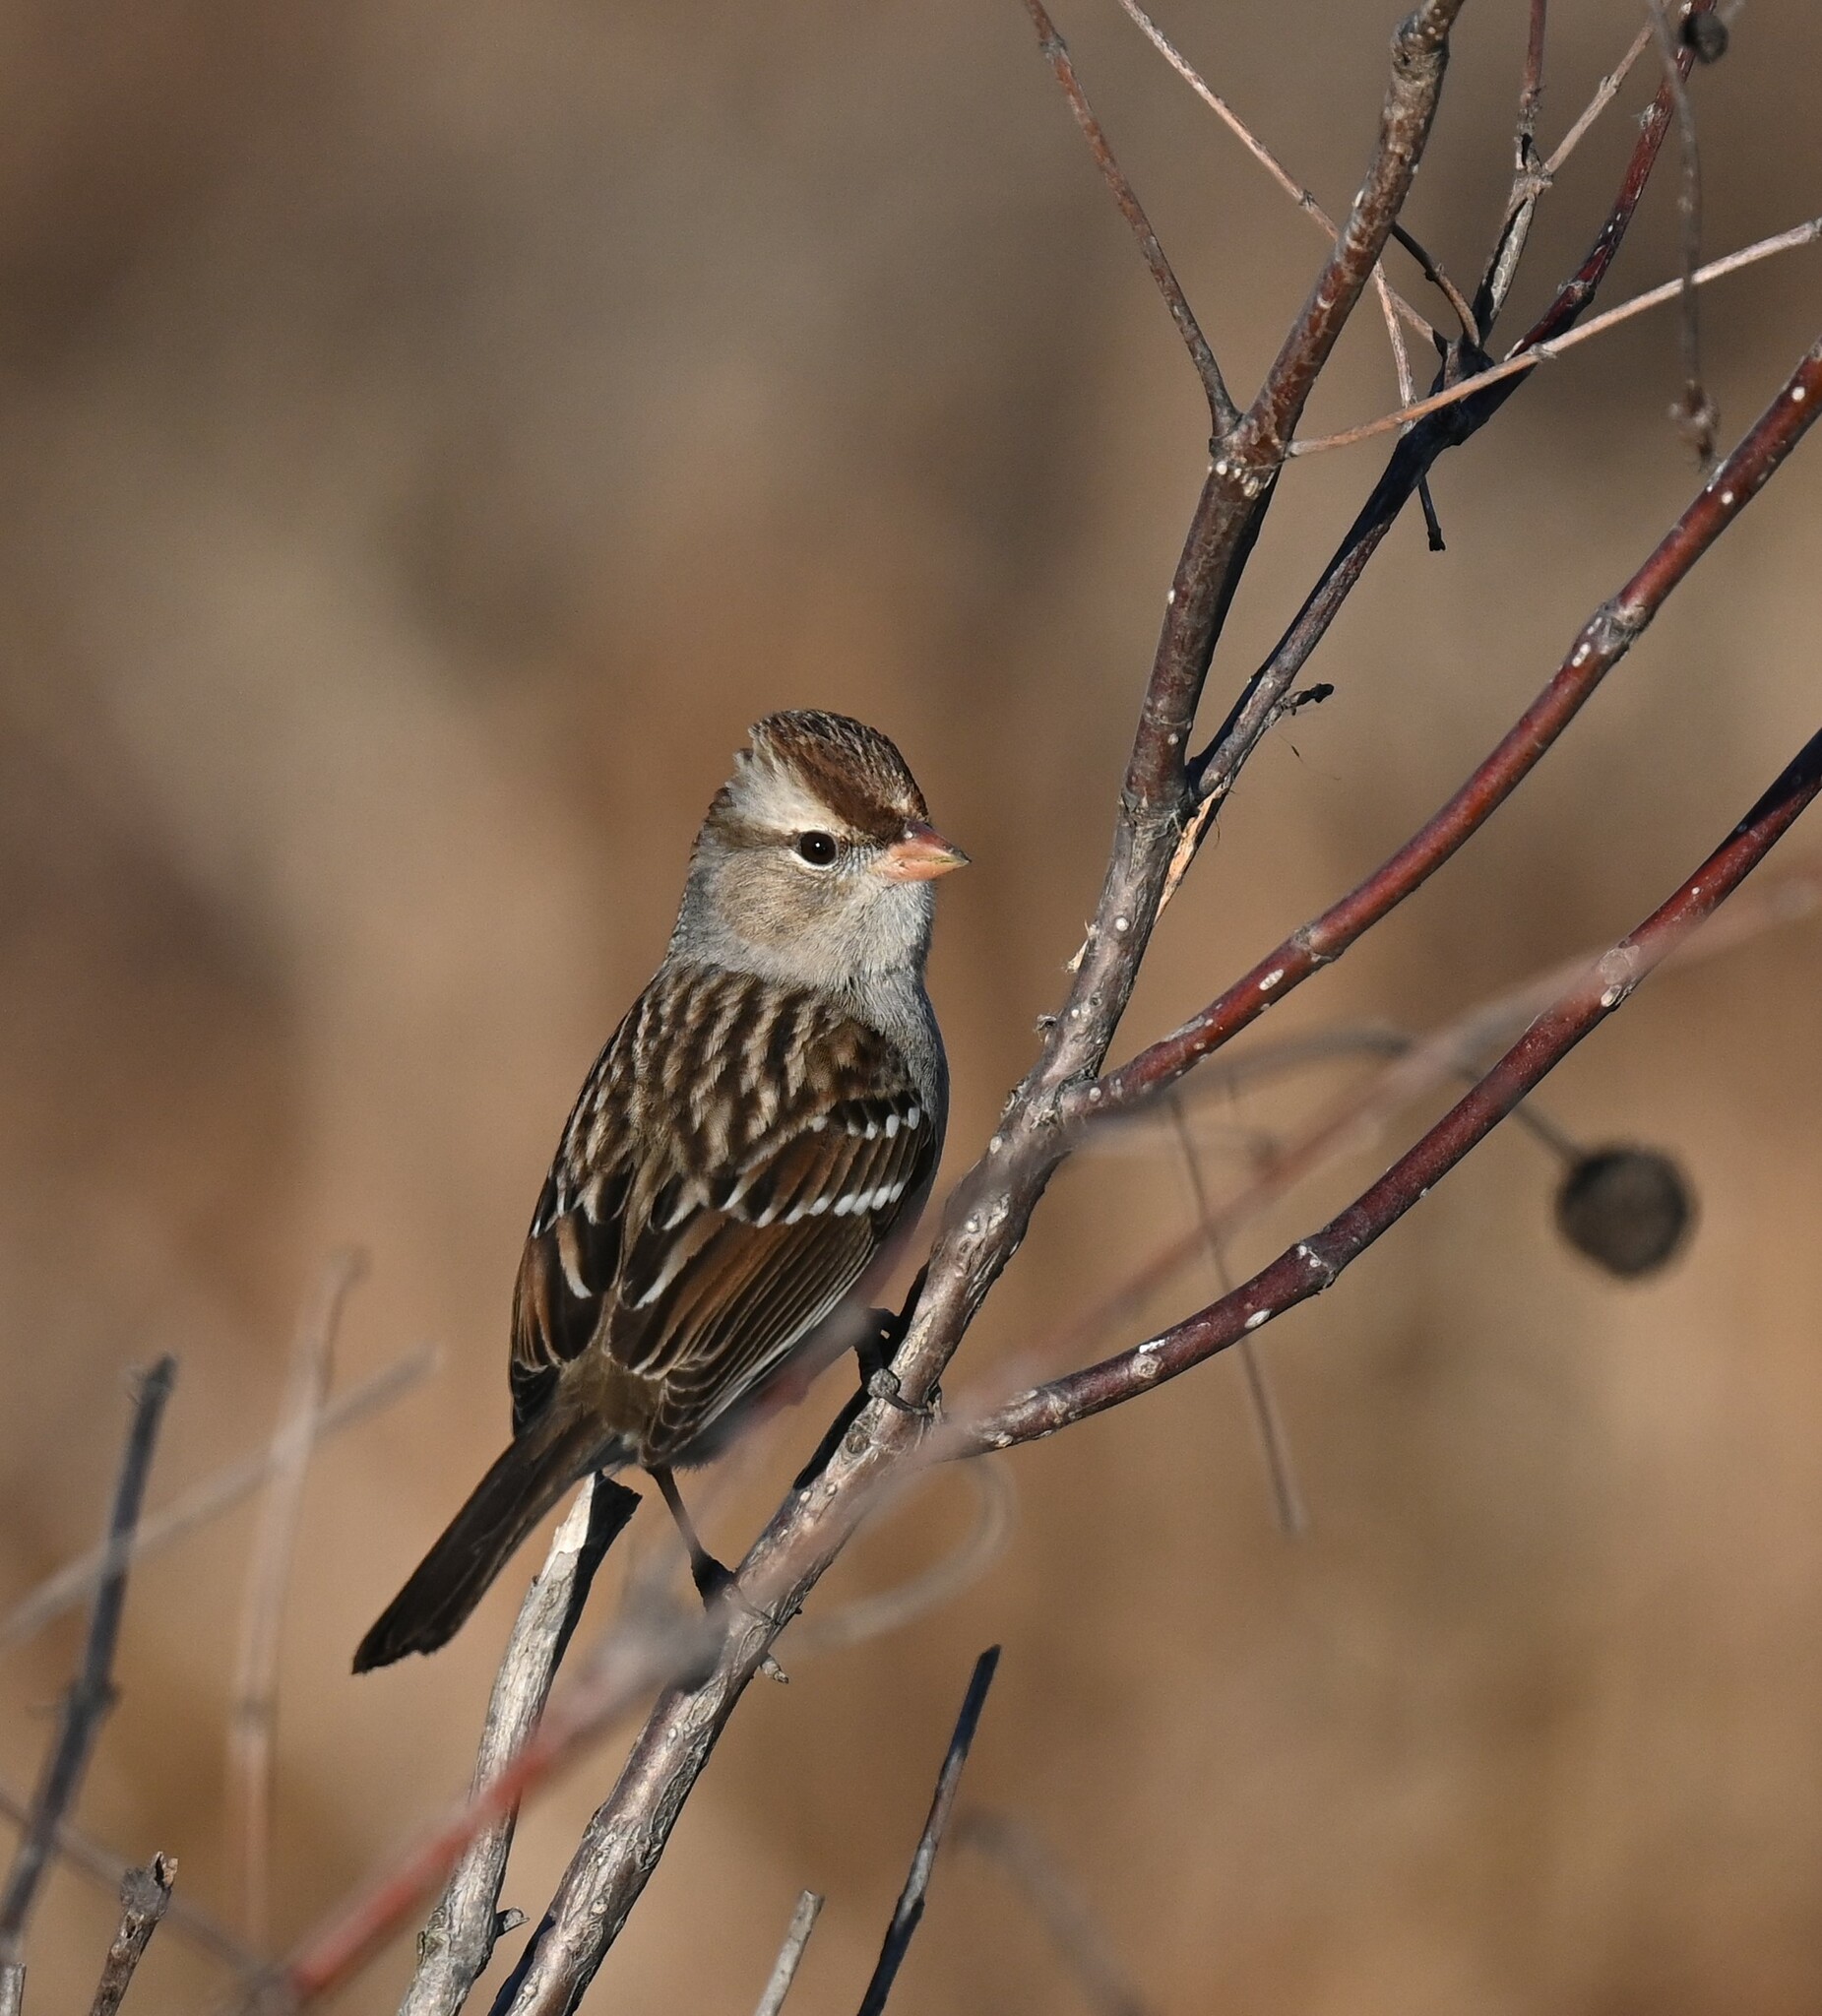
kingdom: Animalia
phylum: Chordata
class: Aves
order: Passeriformes
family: Passerellidae
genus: Zonotrichia
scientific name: Zonotrichia leucophrys
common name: White-crowned sparrow
